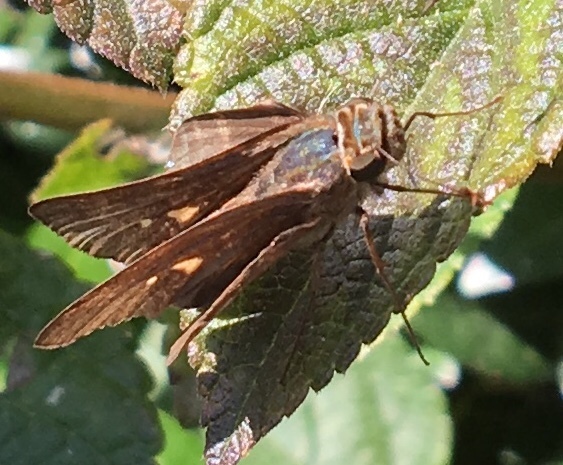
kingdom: Animalia
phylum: Arthropoda
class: Insecta
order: Lepidoptera
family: Hesperiidae
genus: Panoquina
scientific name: Panoquina ocola
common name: Ocola skipper
